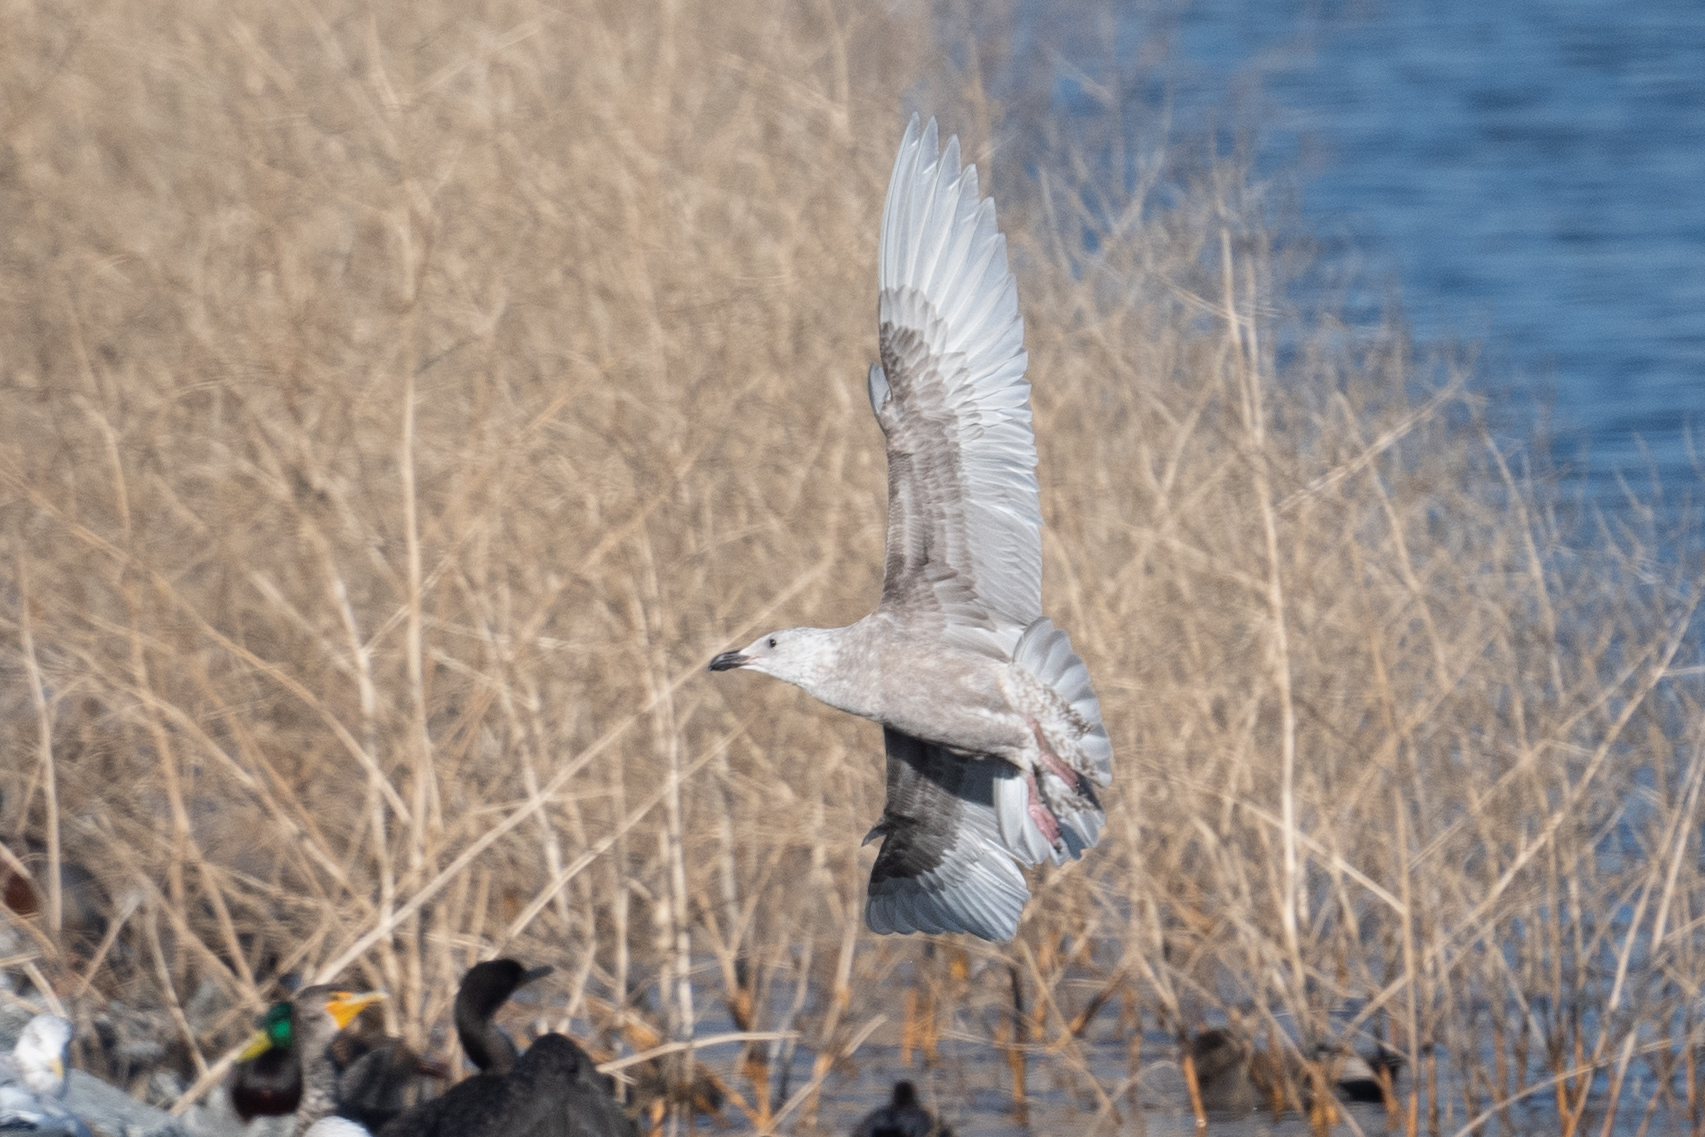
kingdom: Animalia
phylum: Chordata
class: Aves
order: Charadriiformes
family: Laridae
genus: Larus
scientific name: Larus glaucescens
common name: Glaucous-winged gull
